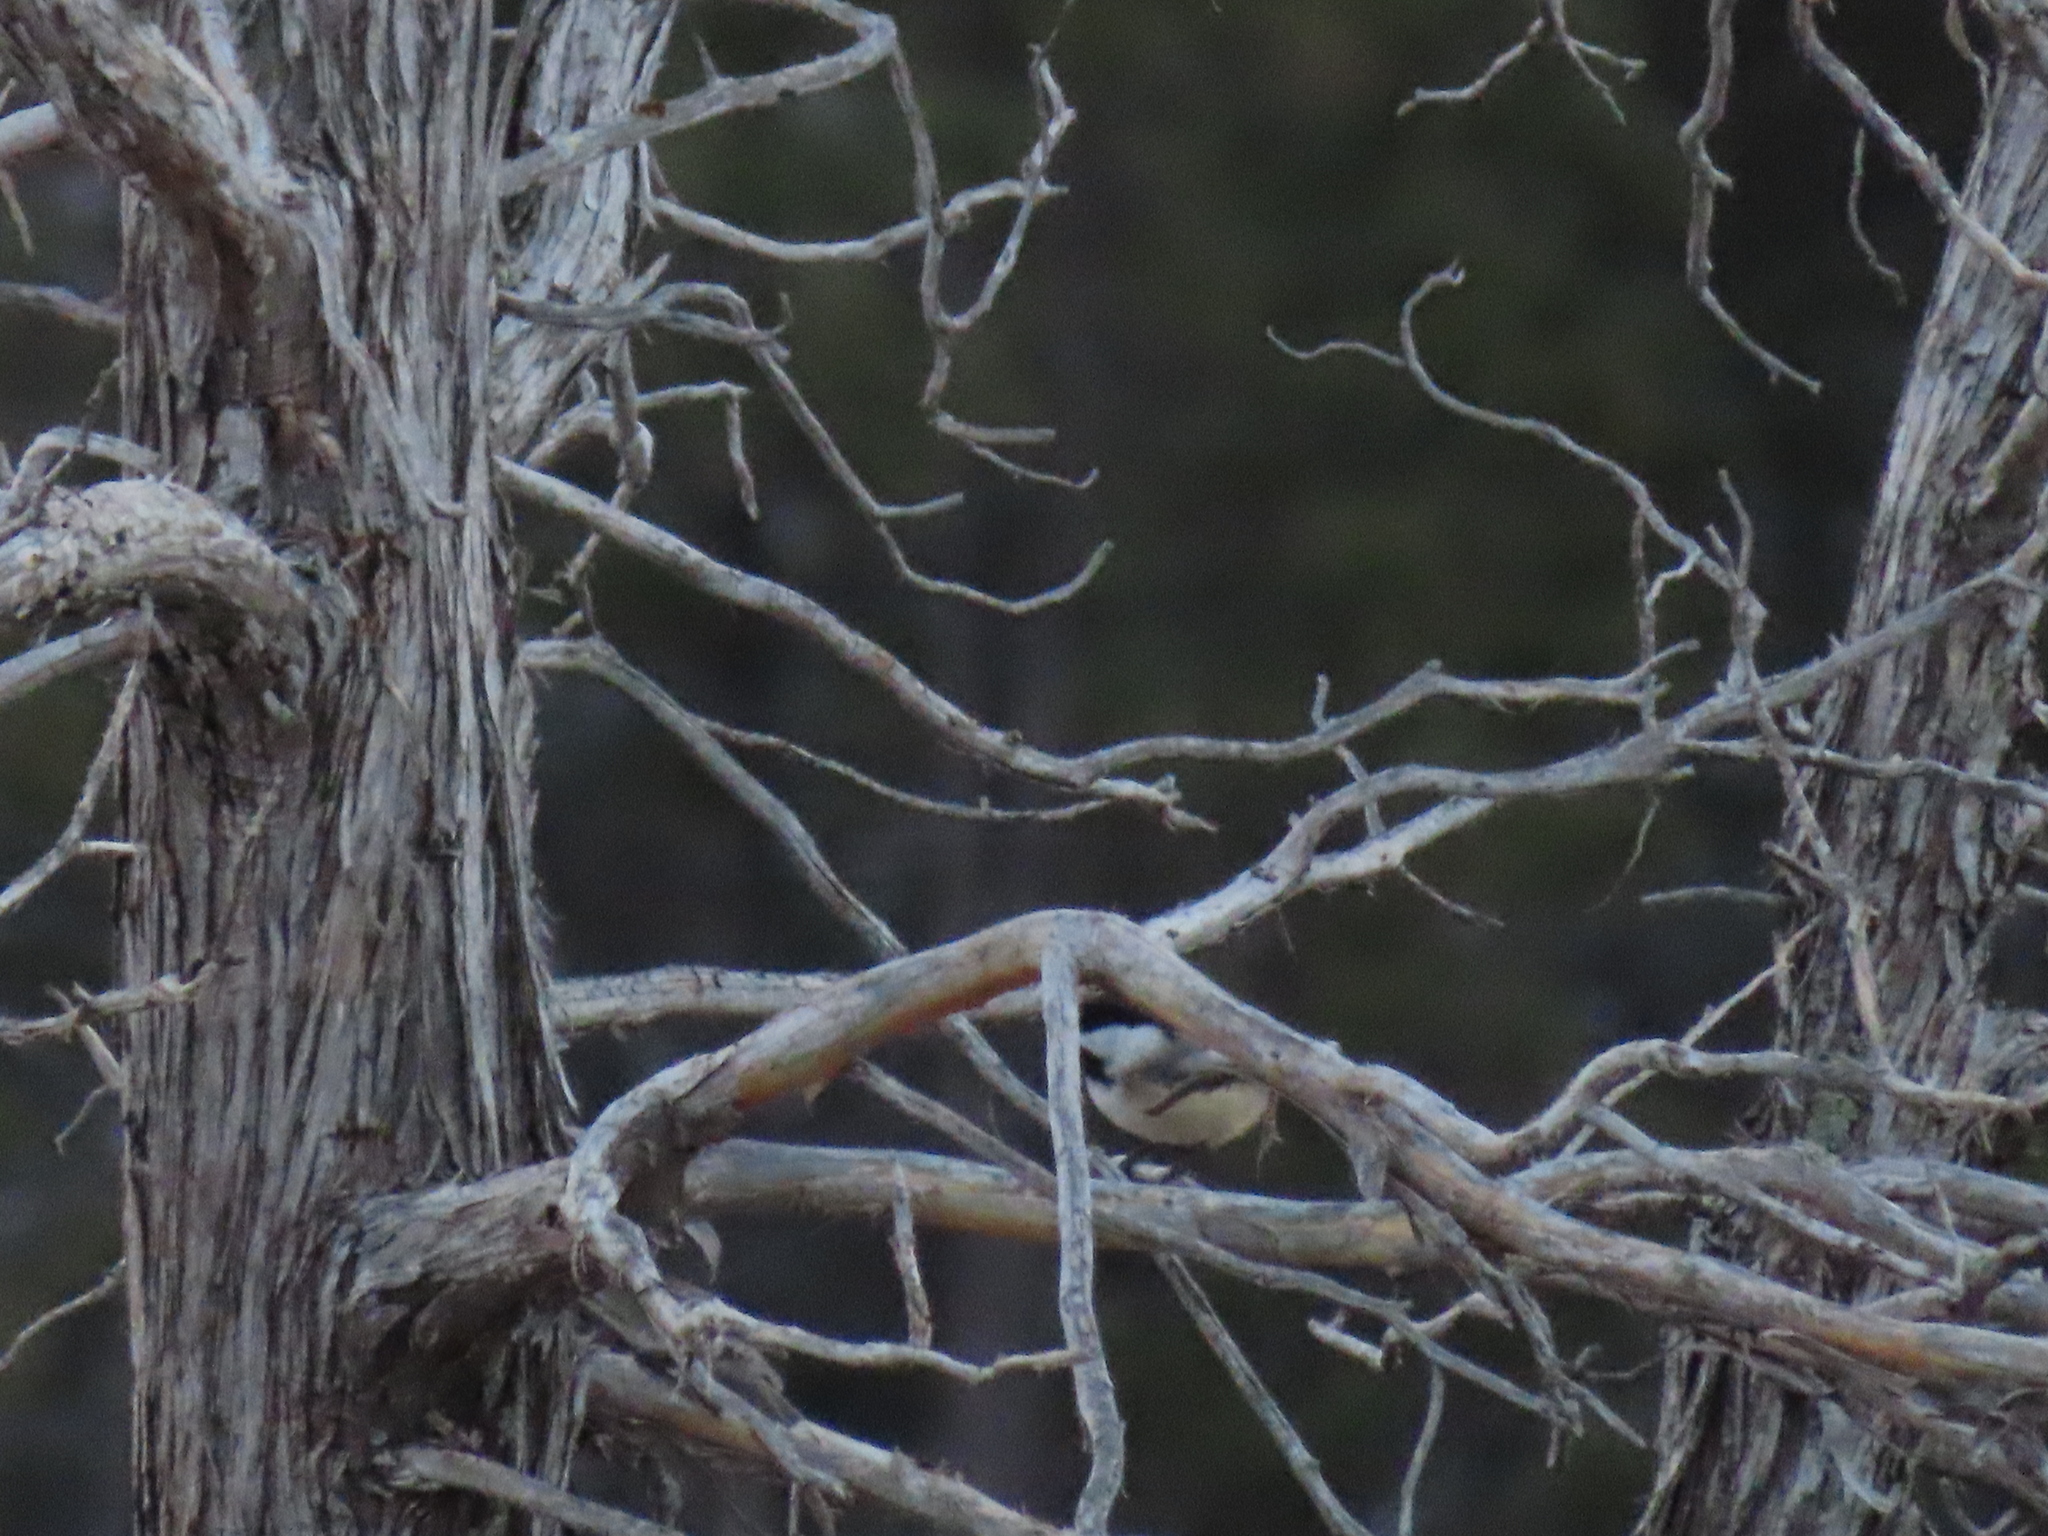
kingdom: Animalia
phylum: Chordata
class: Aves
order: Passeriformes
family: Paridae
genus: Poecile
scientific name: Poecile atricapillus
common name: Black-capped chickadee
